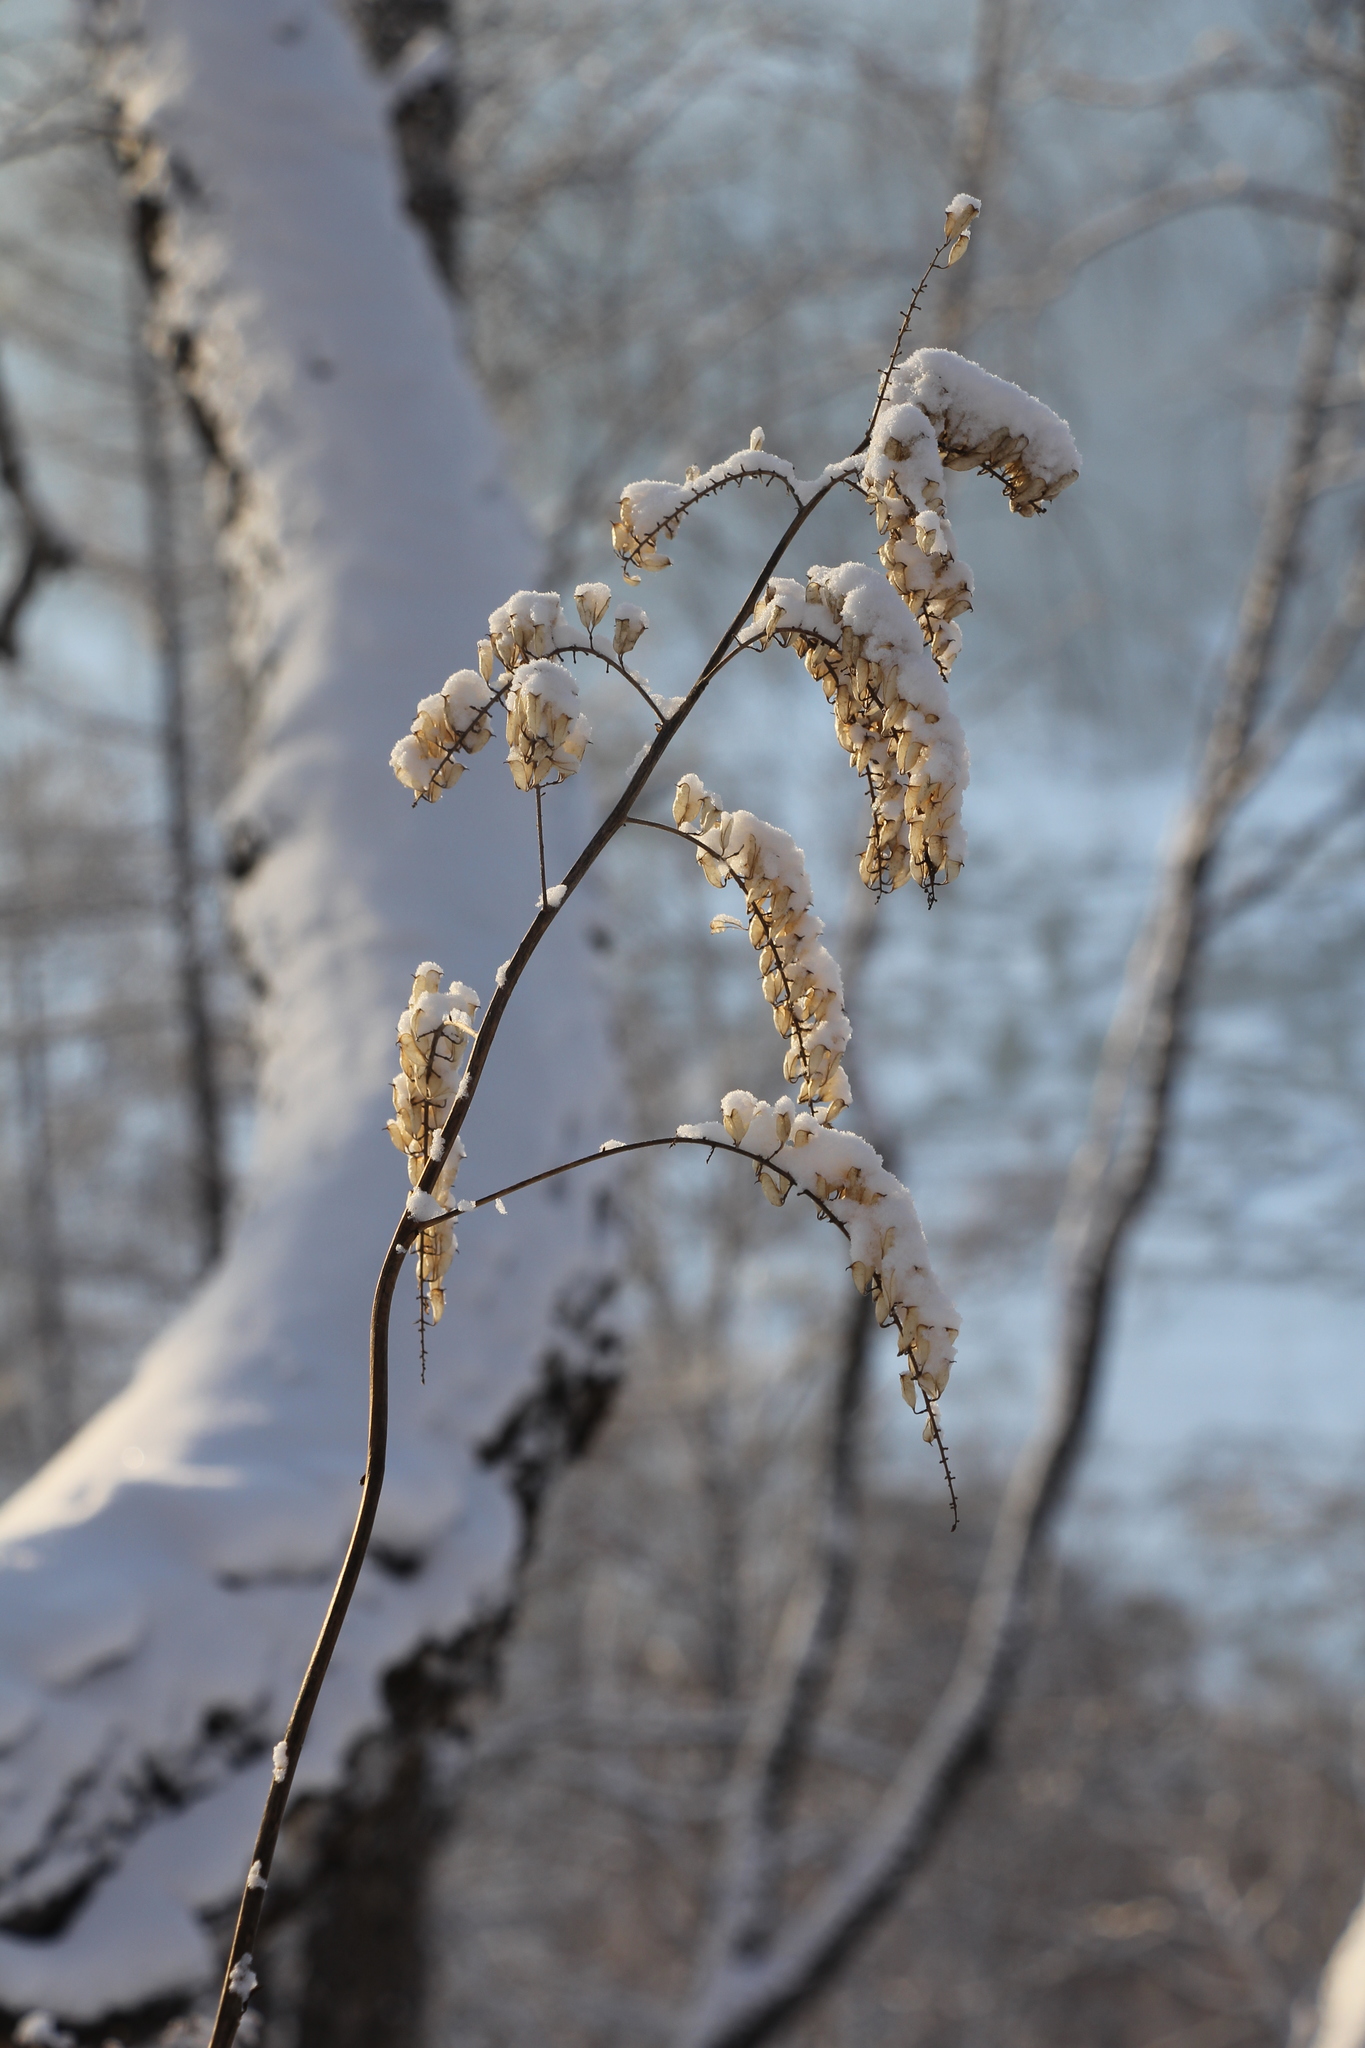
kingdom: Plantae
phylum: Tracheophyta
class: Magnoliopsida
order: Ranunculales
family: Ranunculaceae
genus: Actaea
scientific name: Actaea cimicifuga
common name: Chinese cimicifuga
